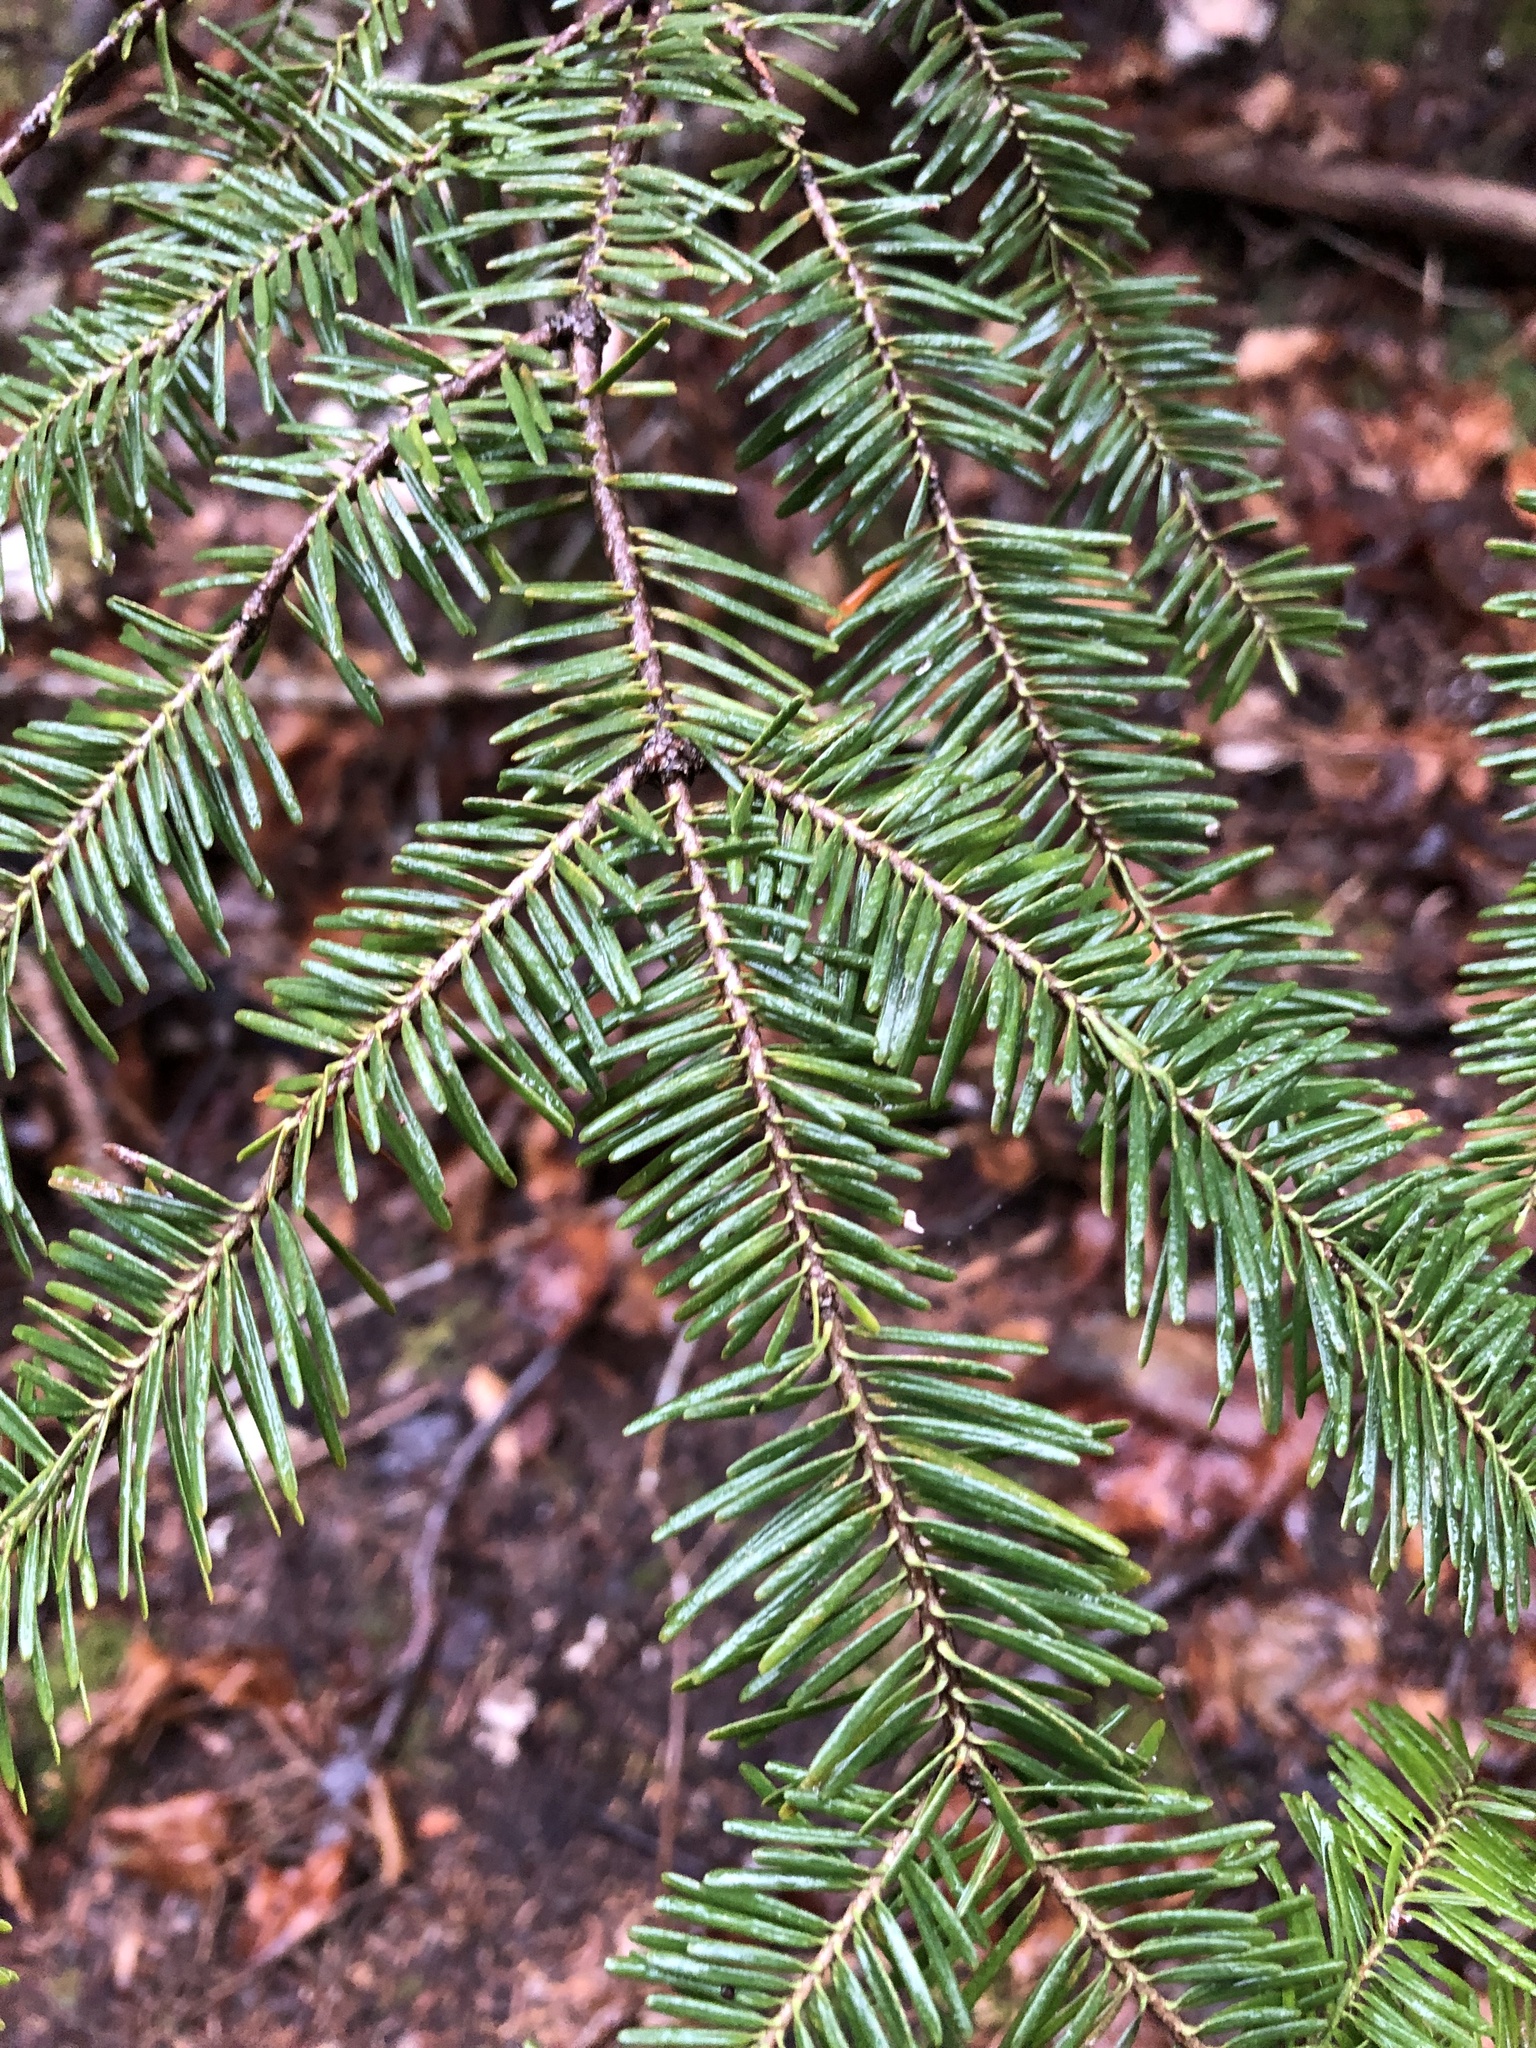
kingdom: Plantae
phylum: Tracheophyta
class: Pinopsida
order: Pinales
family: Pinaceae
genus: Abies
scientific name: Abies balsamea
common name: Balsam fir
